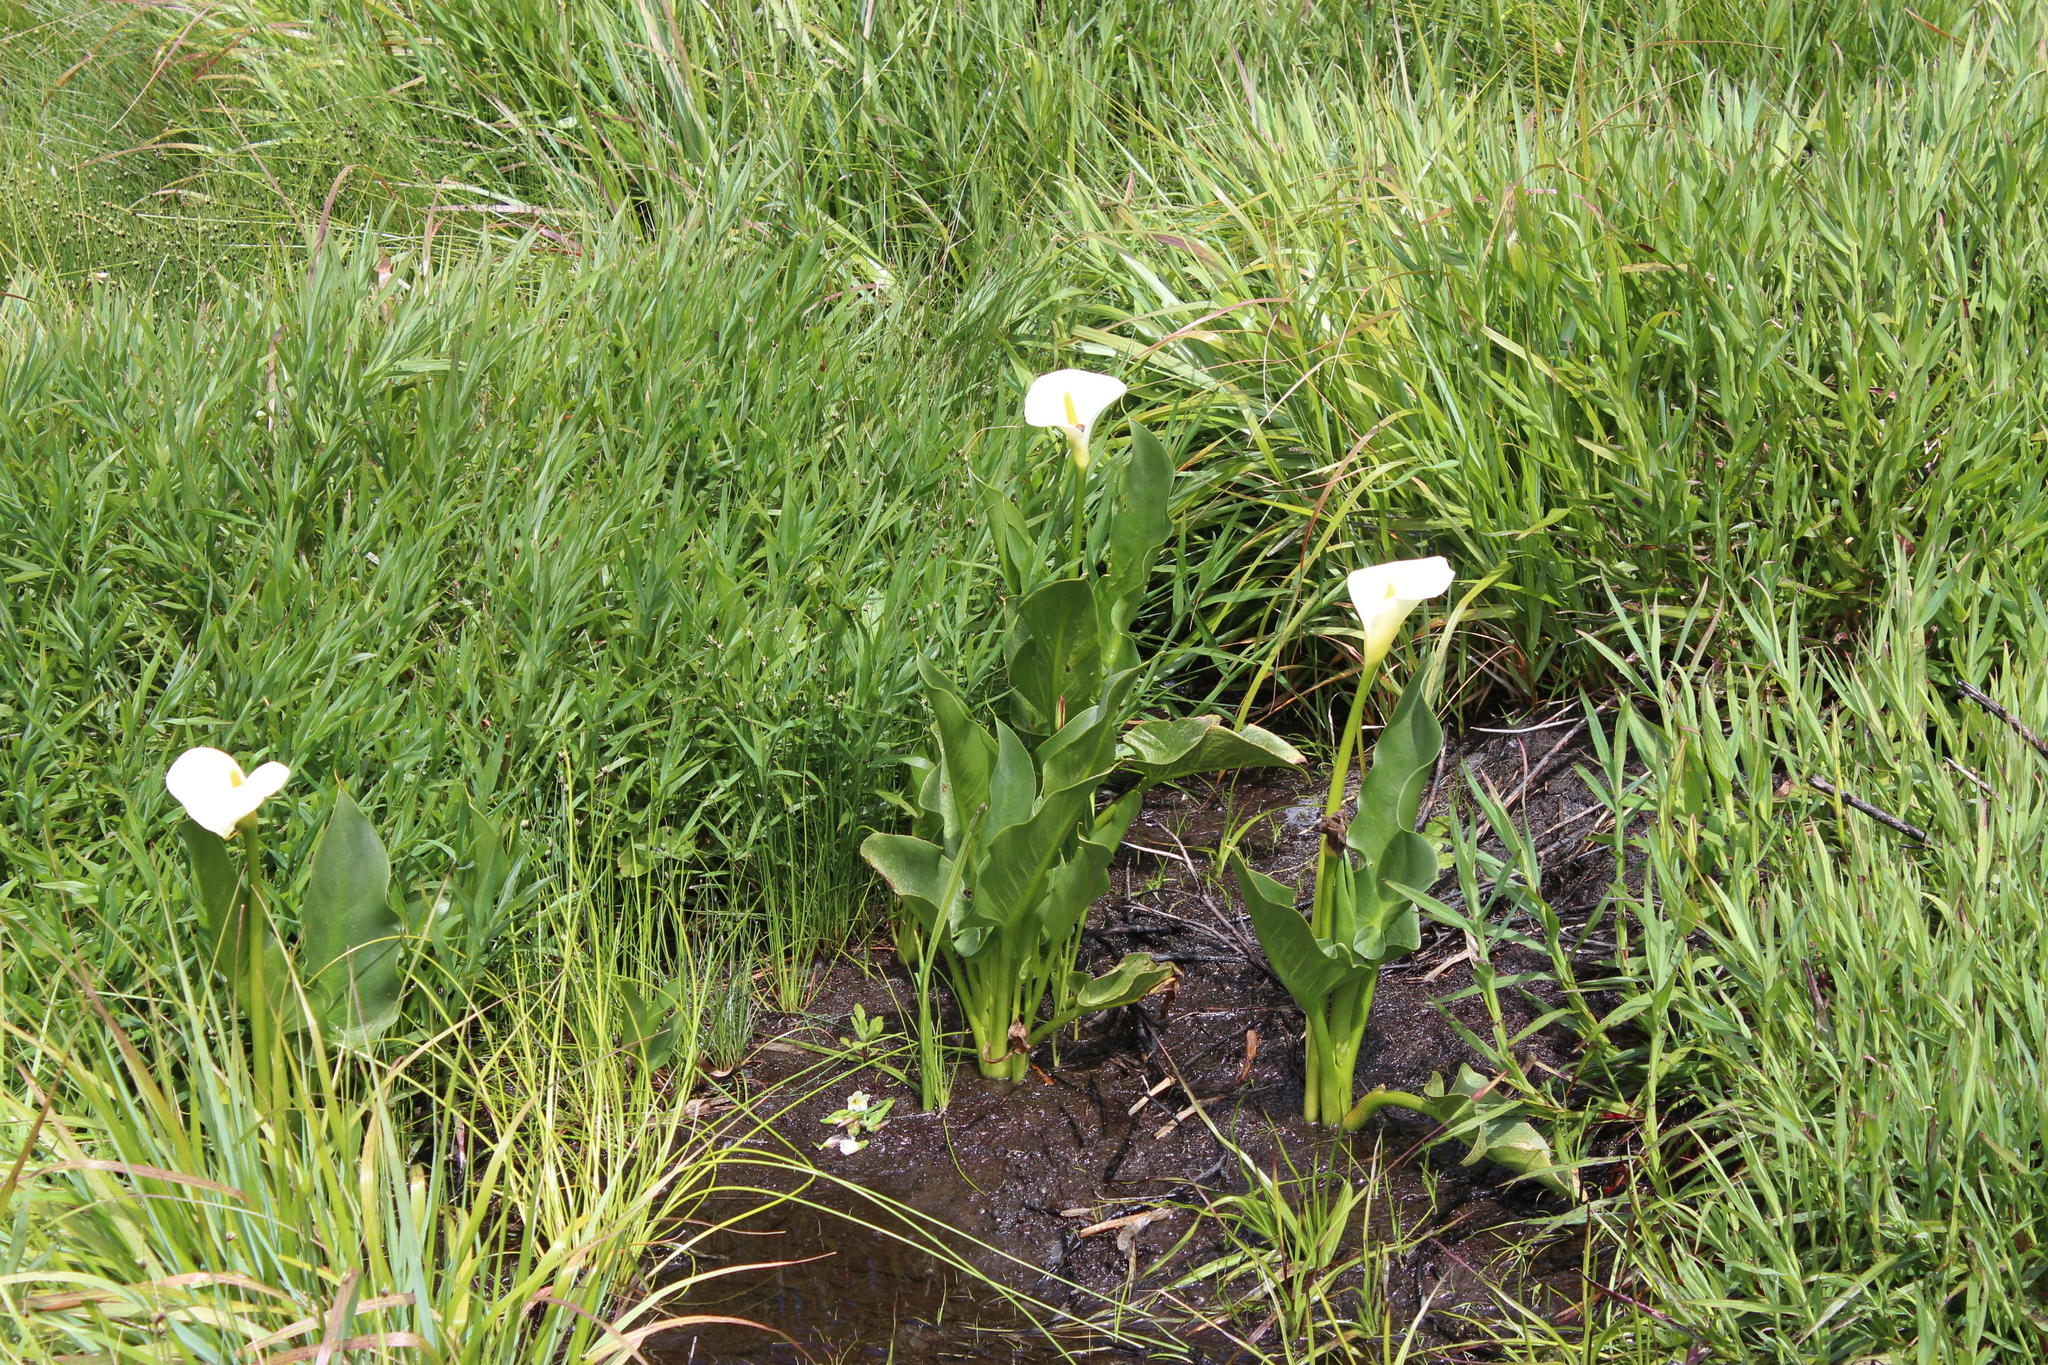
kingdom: Plantae
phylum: Tracheophyta
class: Liliopsida
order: Alismatales
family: Araceae
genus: Zantedeschia
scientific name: Zantedeschia aethiopica
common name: Altar-lily
